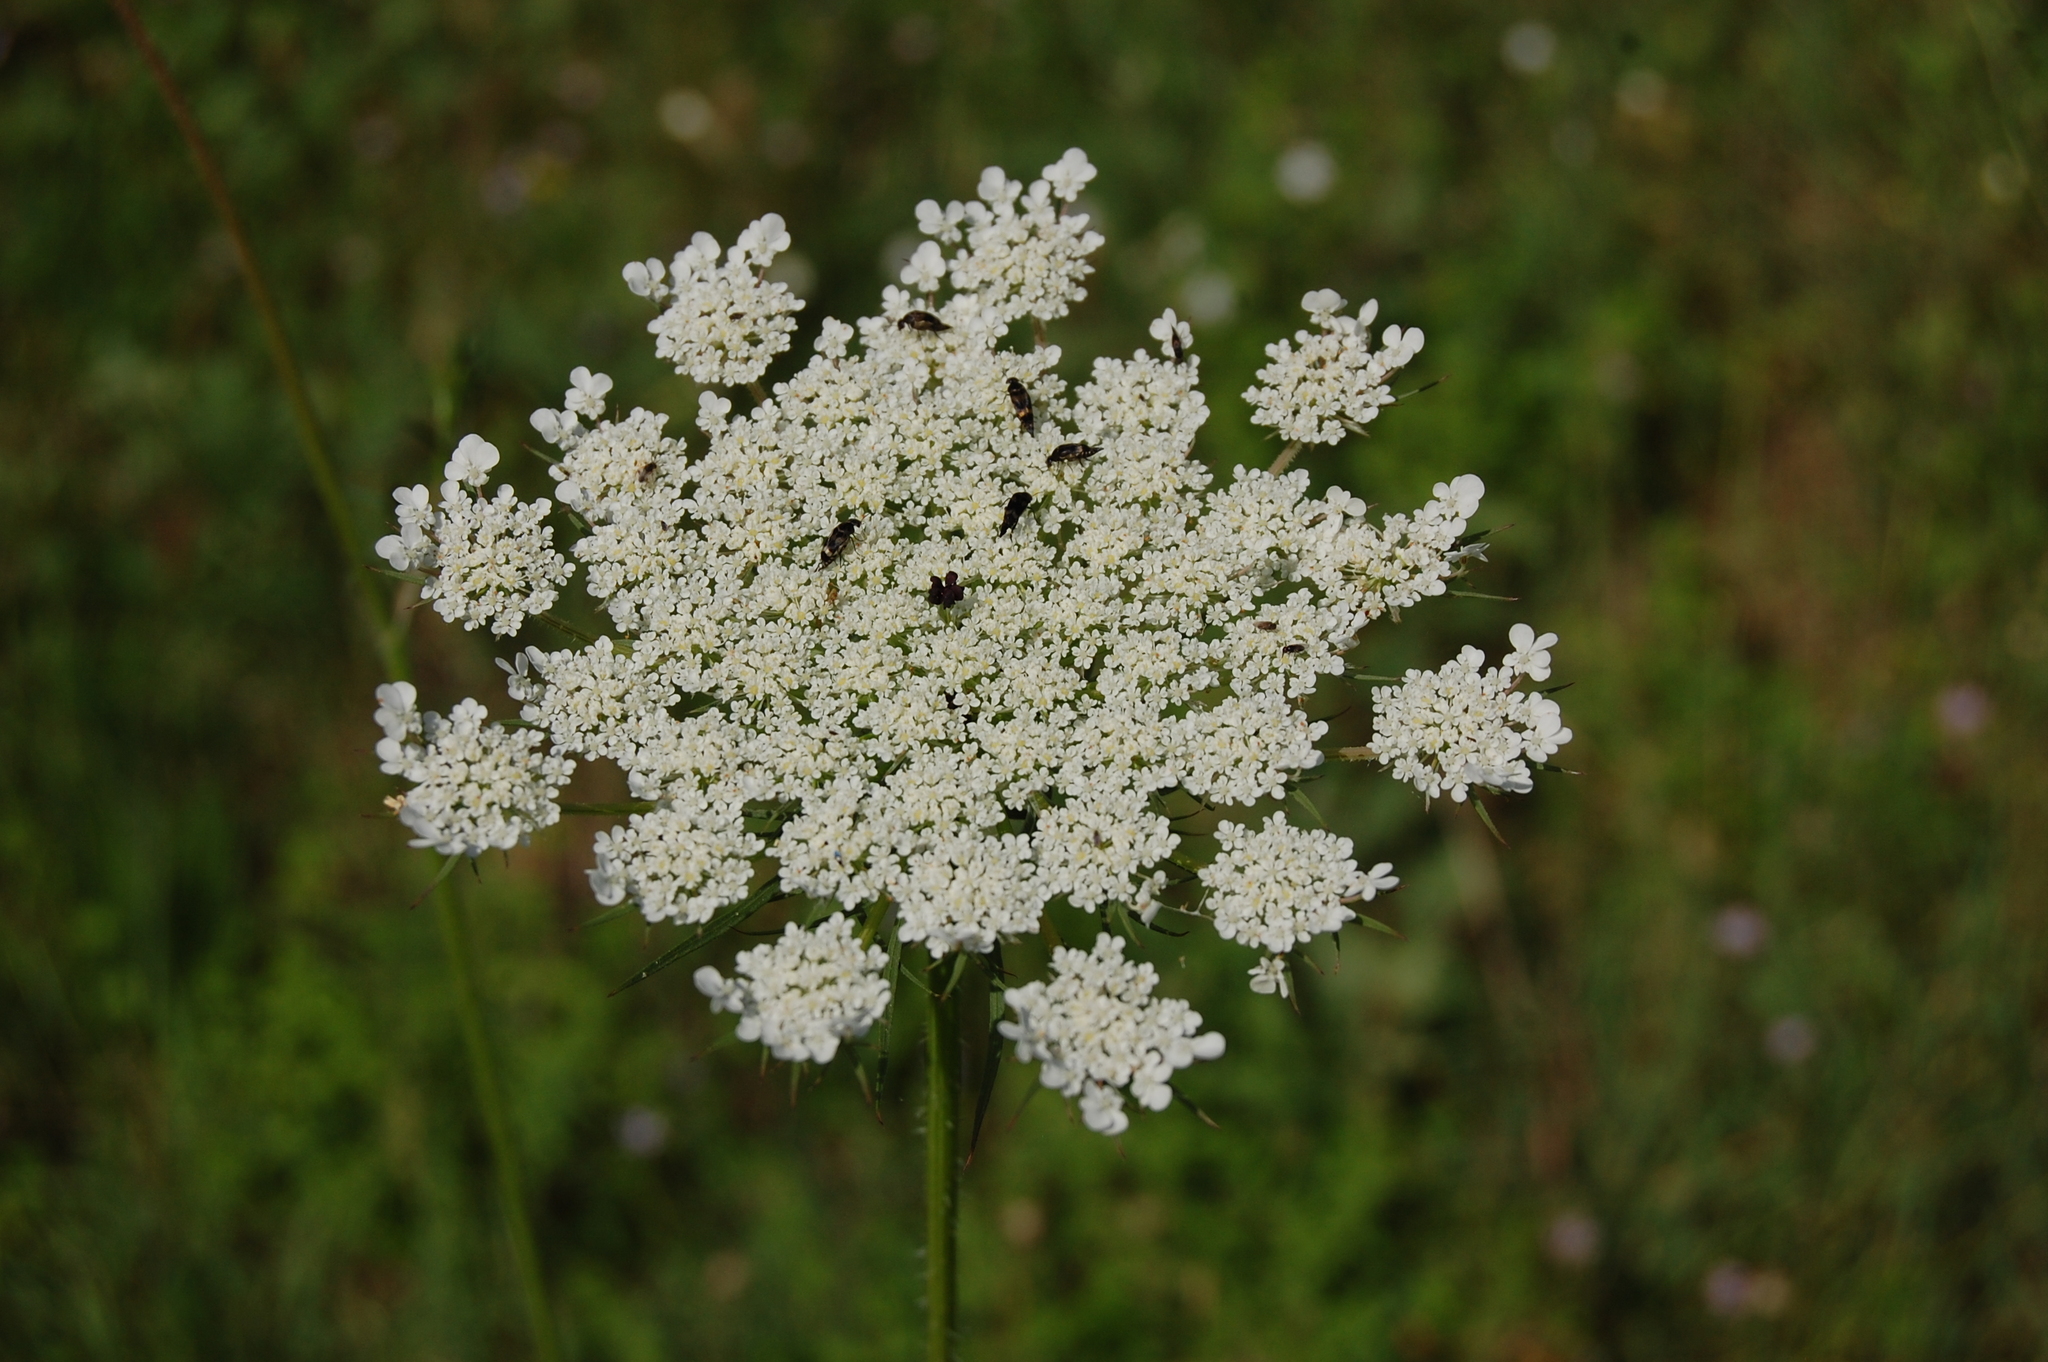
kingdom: Plantae
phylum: Tracheophyta
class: Magnoliopsida
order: Apiales
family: Apiaceae
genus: Daucus
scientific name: Daucus carota
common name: Wild carrot
